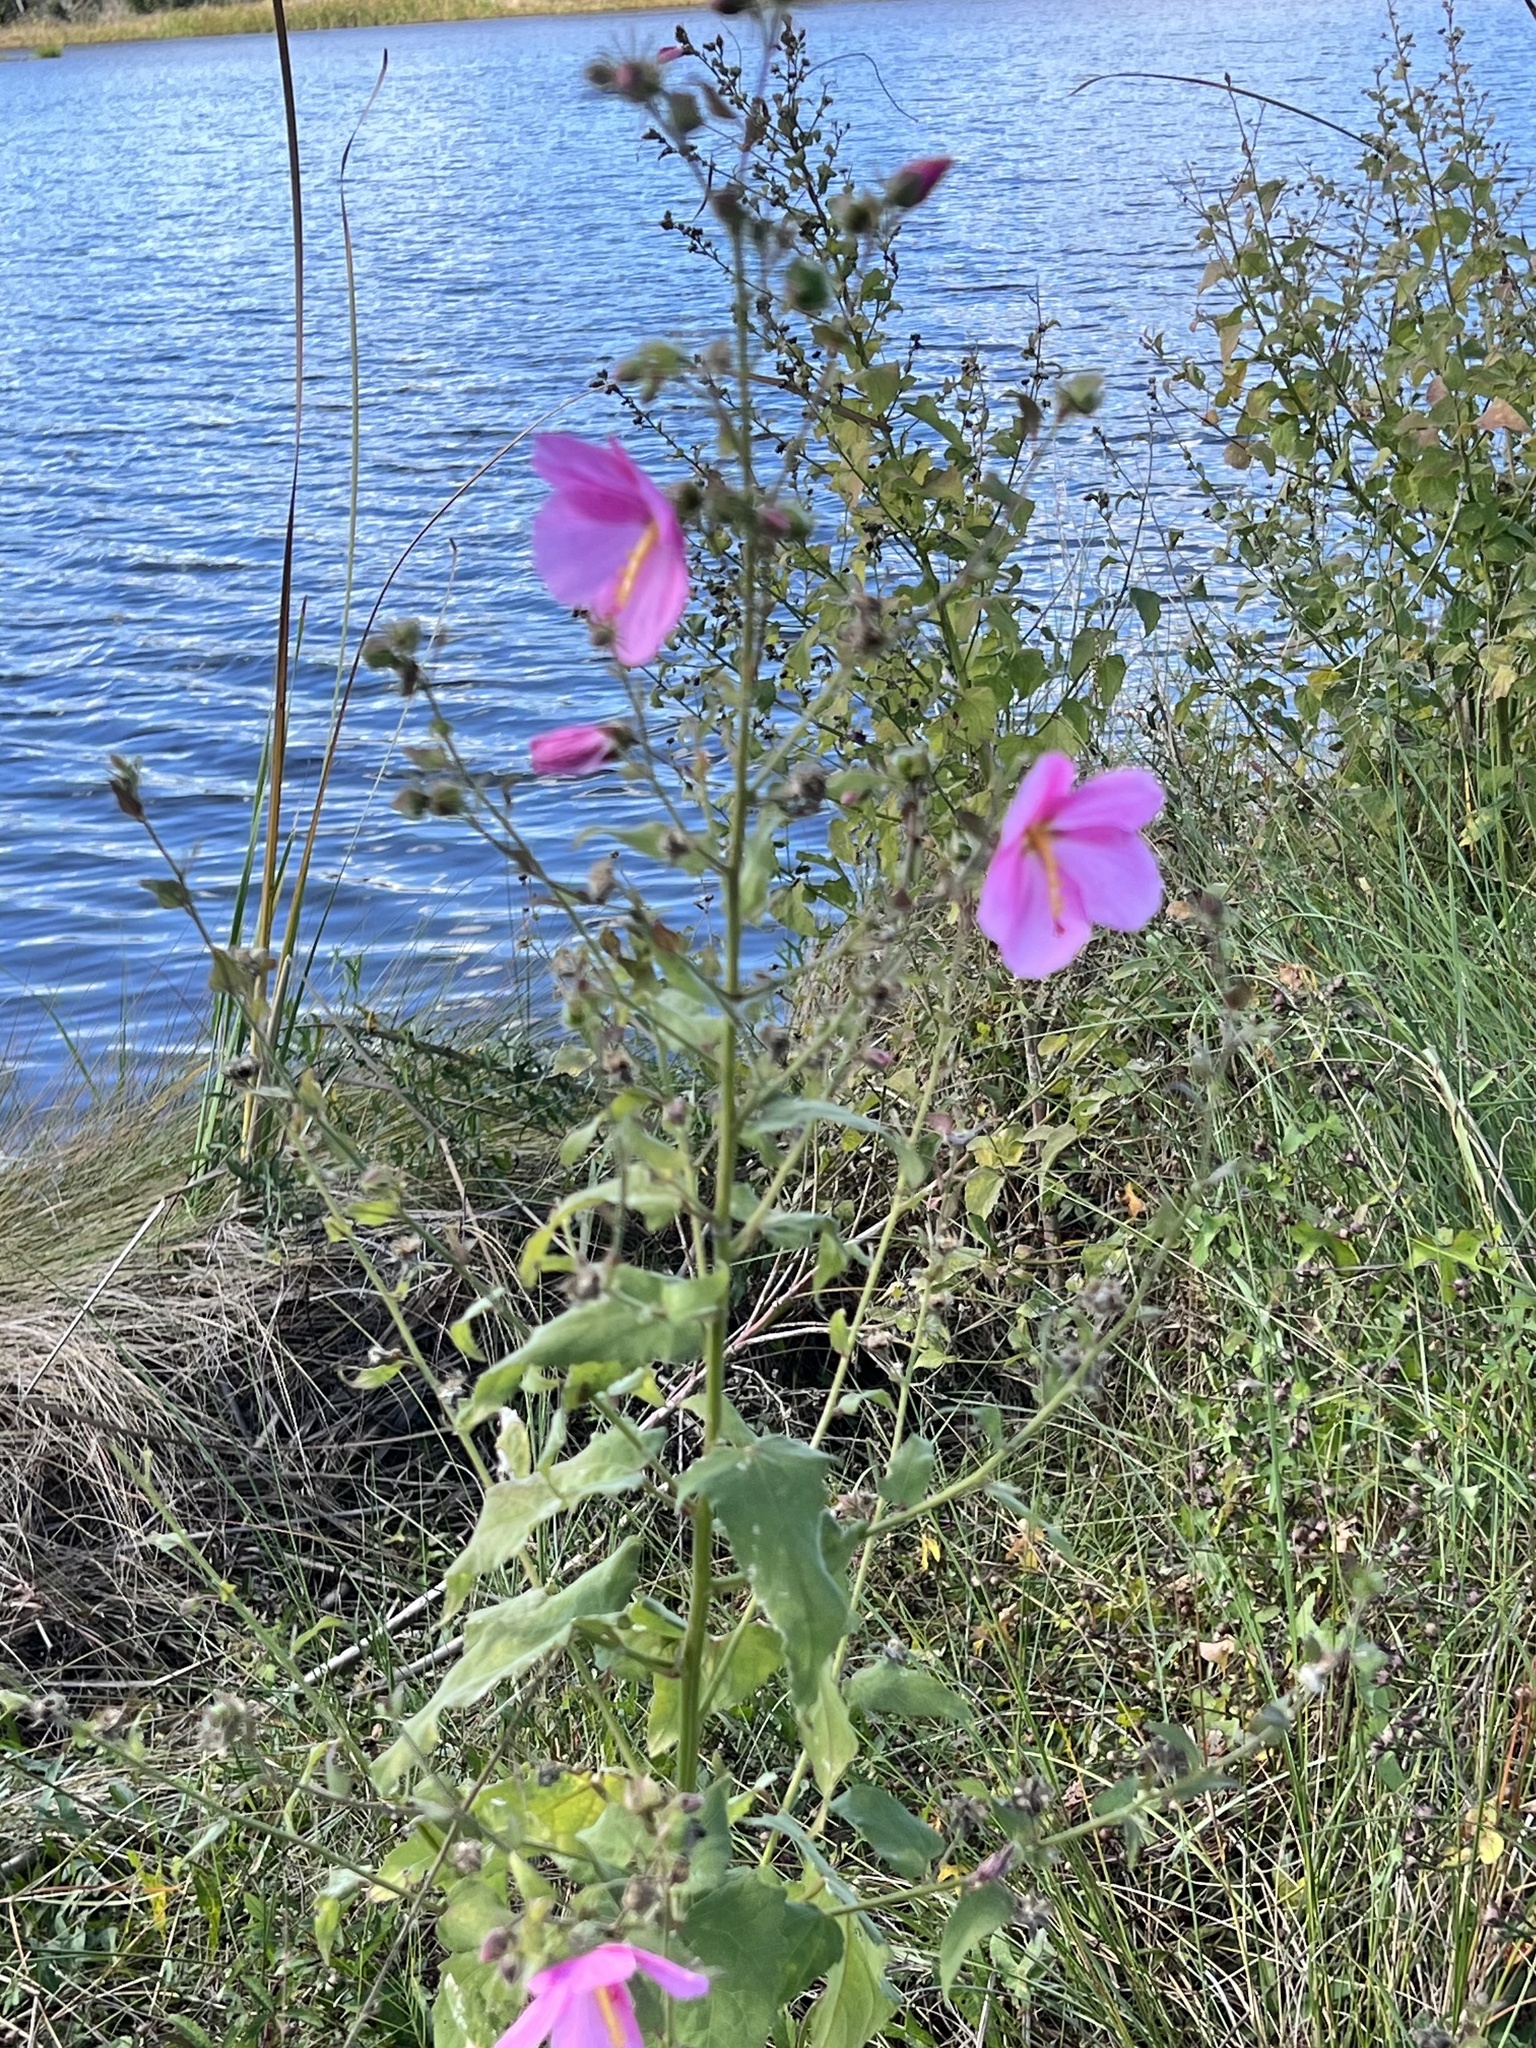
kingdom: Plantae
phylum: Tracheophyta
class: Magnoliopsida
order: Malvales
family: Malvaceae
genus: Kosteletzkya
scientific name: Kosteletzkya pentacarpos
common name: Virginia saltmarsh mallow
